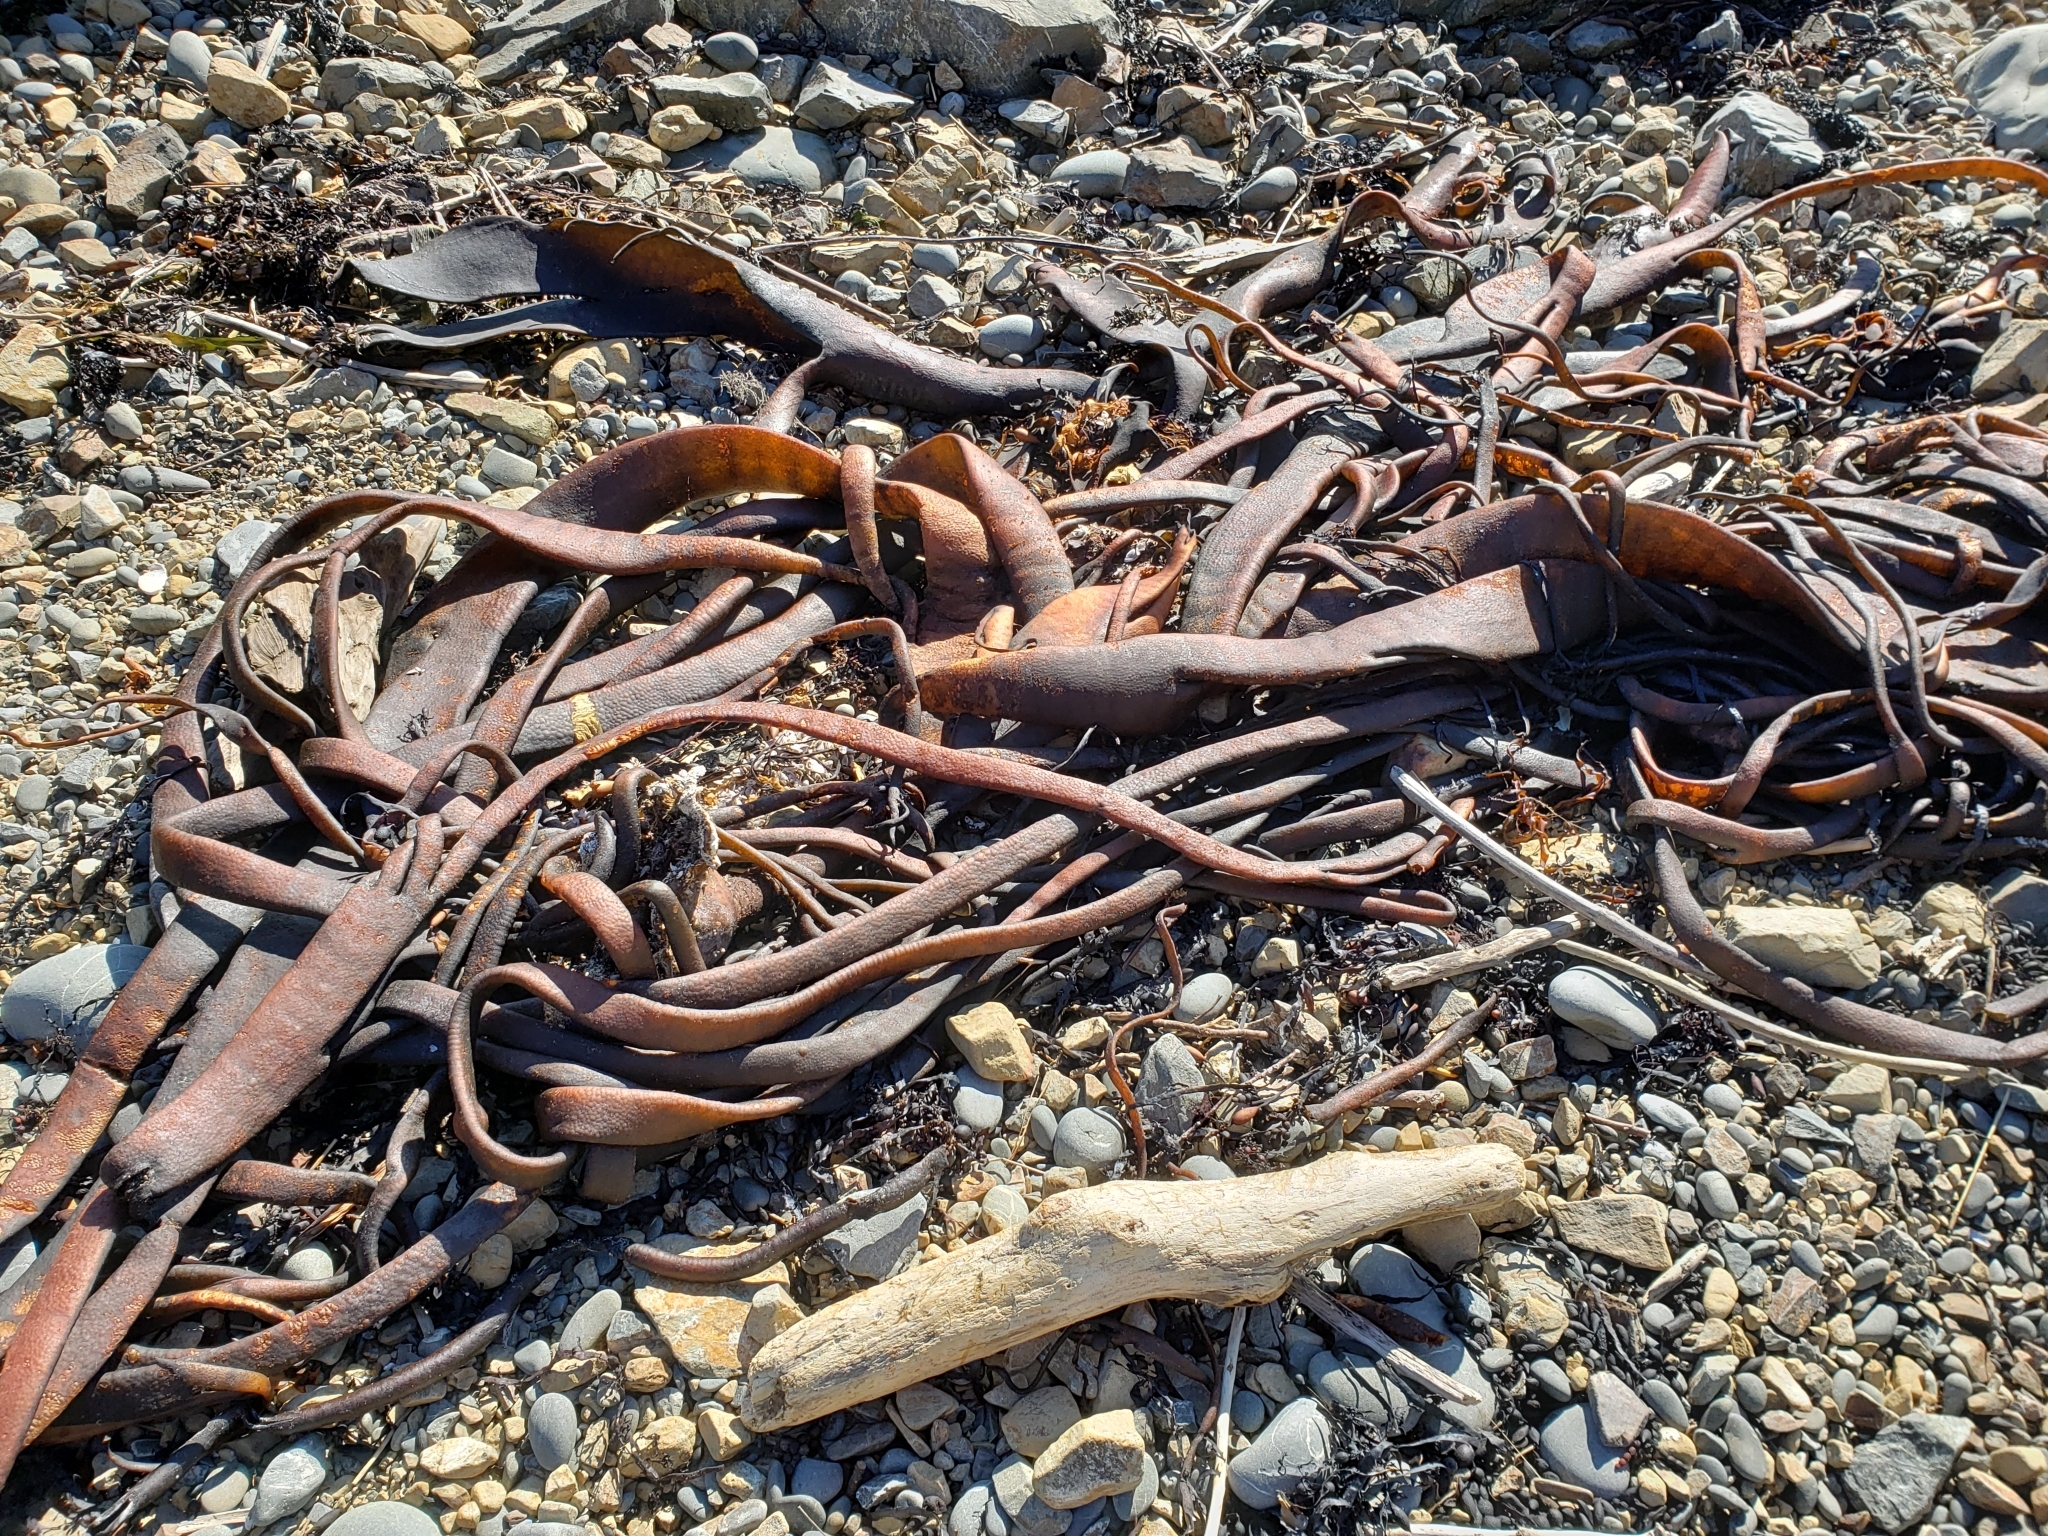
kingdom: Chromista
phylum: Ochrophyta
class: Phaeophyceae
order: Fucales
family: Durvillaeaceae
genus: Durvillaea
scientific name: Durvillaea antarctica
